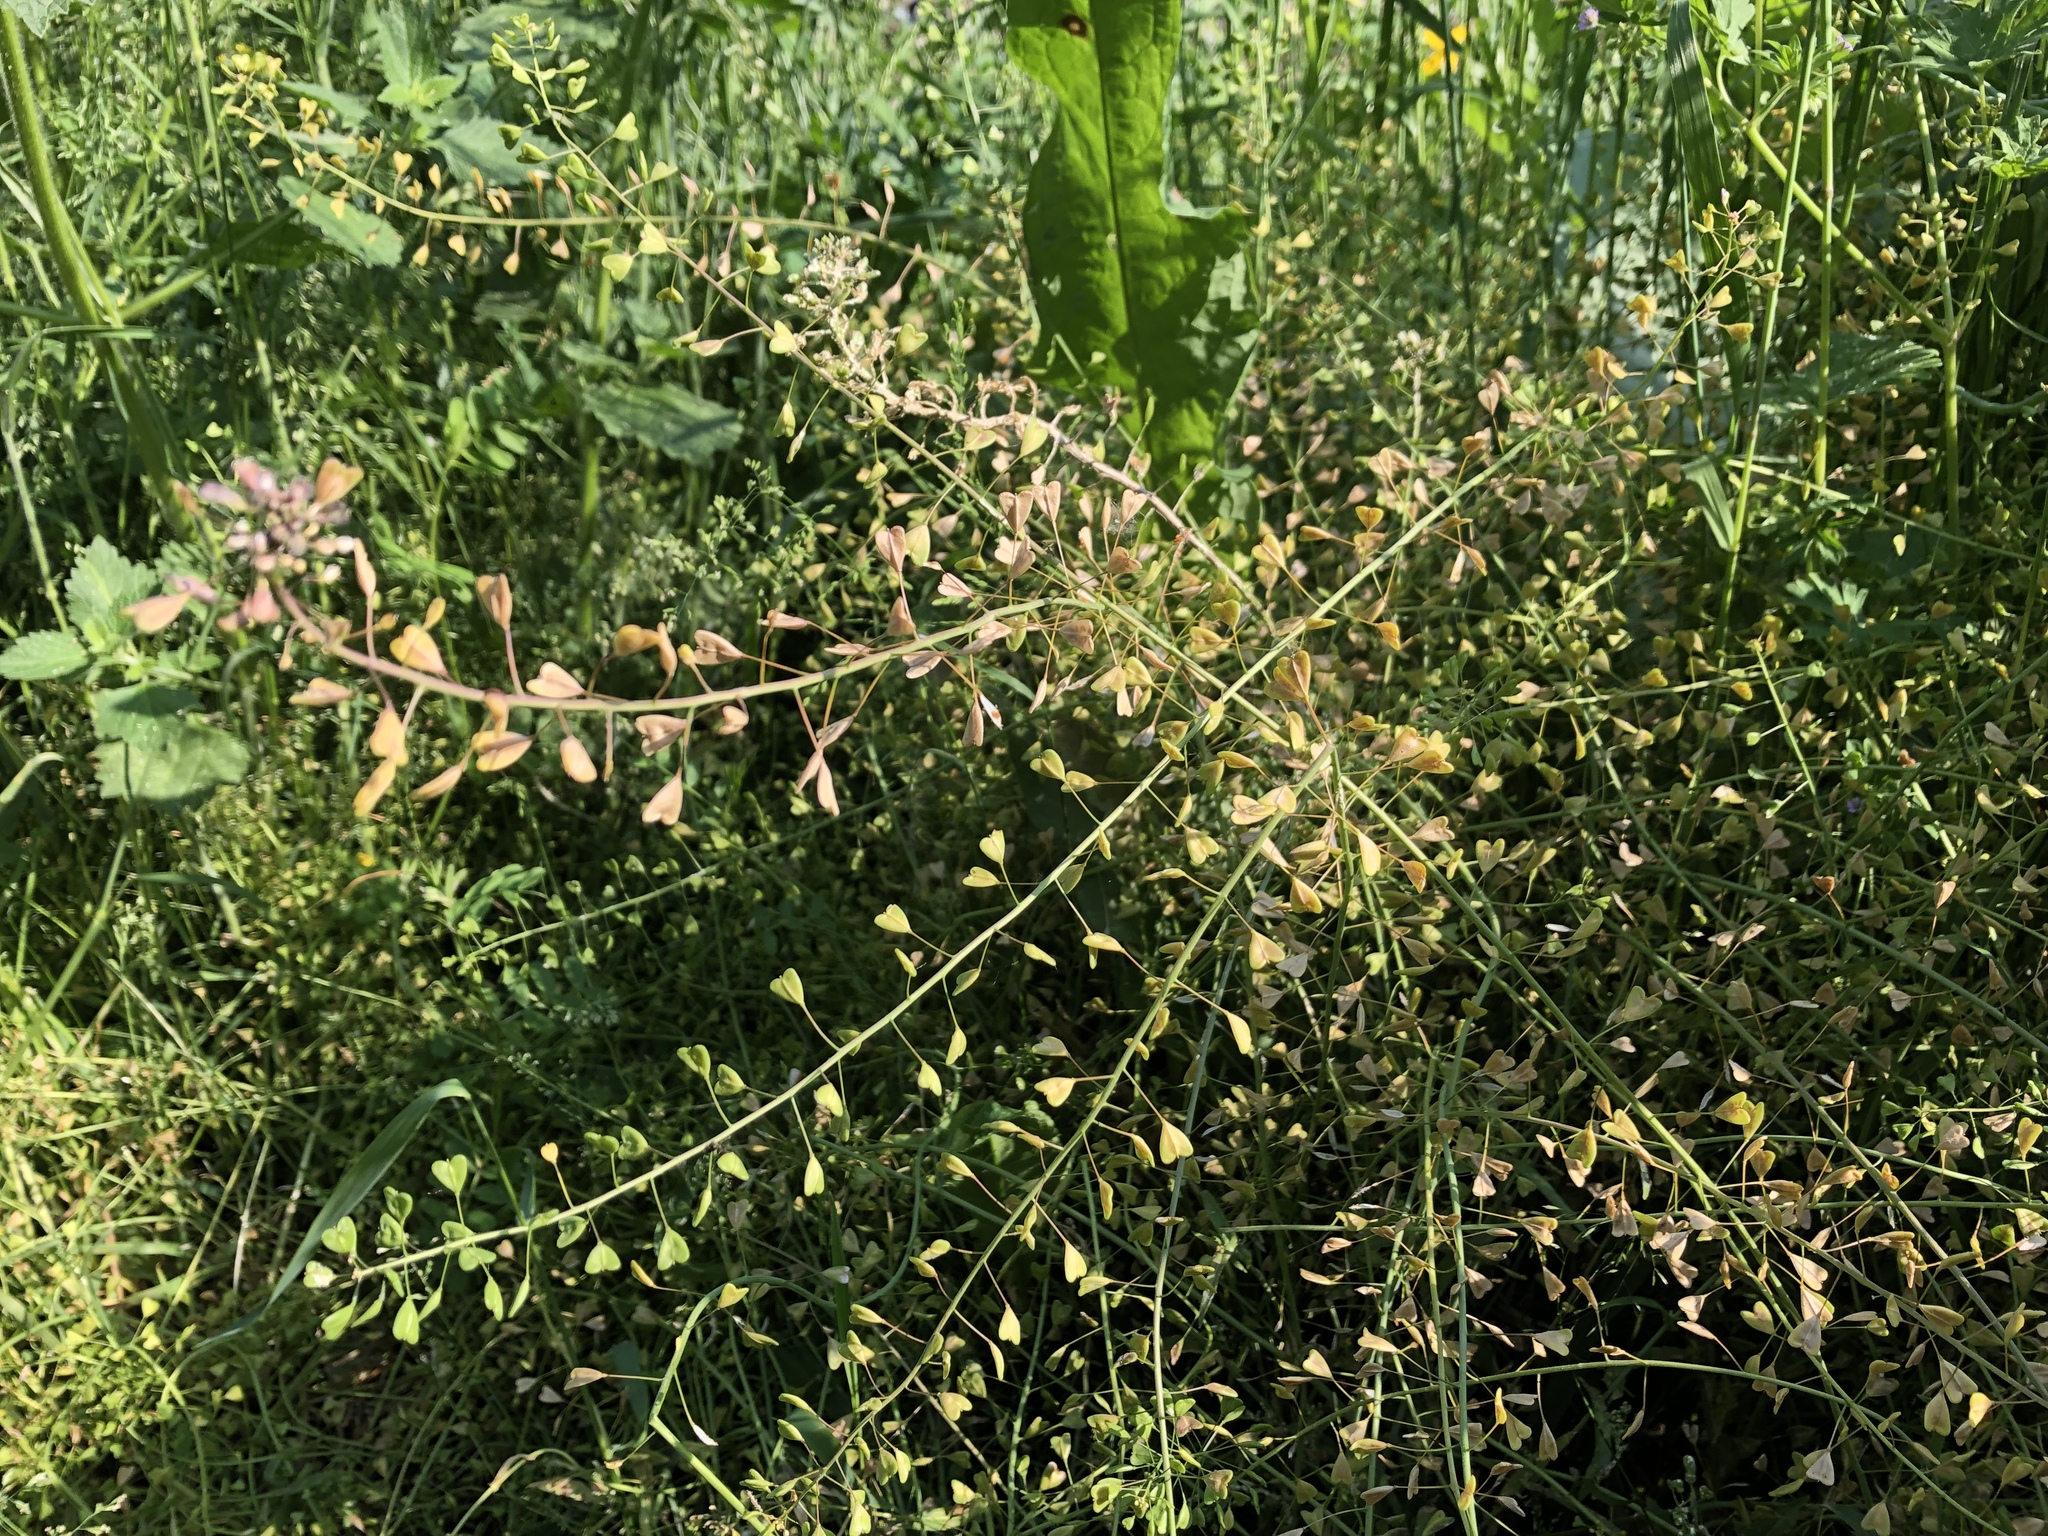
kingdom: Plantae
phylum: Tracheophyta
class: Magnoliopsida
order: Brassicales
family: Brassicaceae
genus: Capsella
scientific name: Capsella bursa-pastoris
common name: Shepherd's purse
